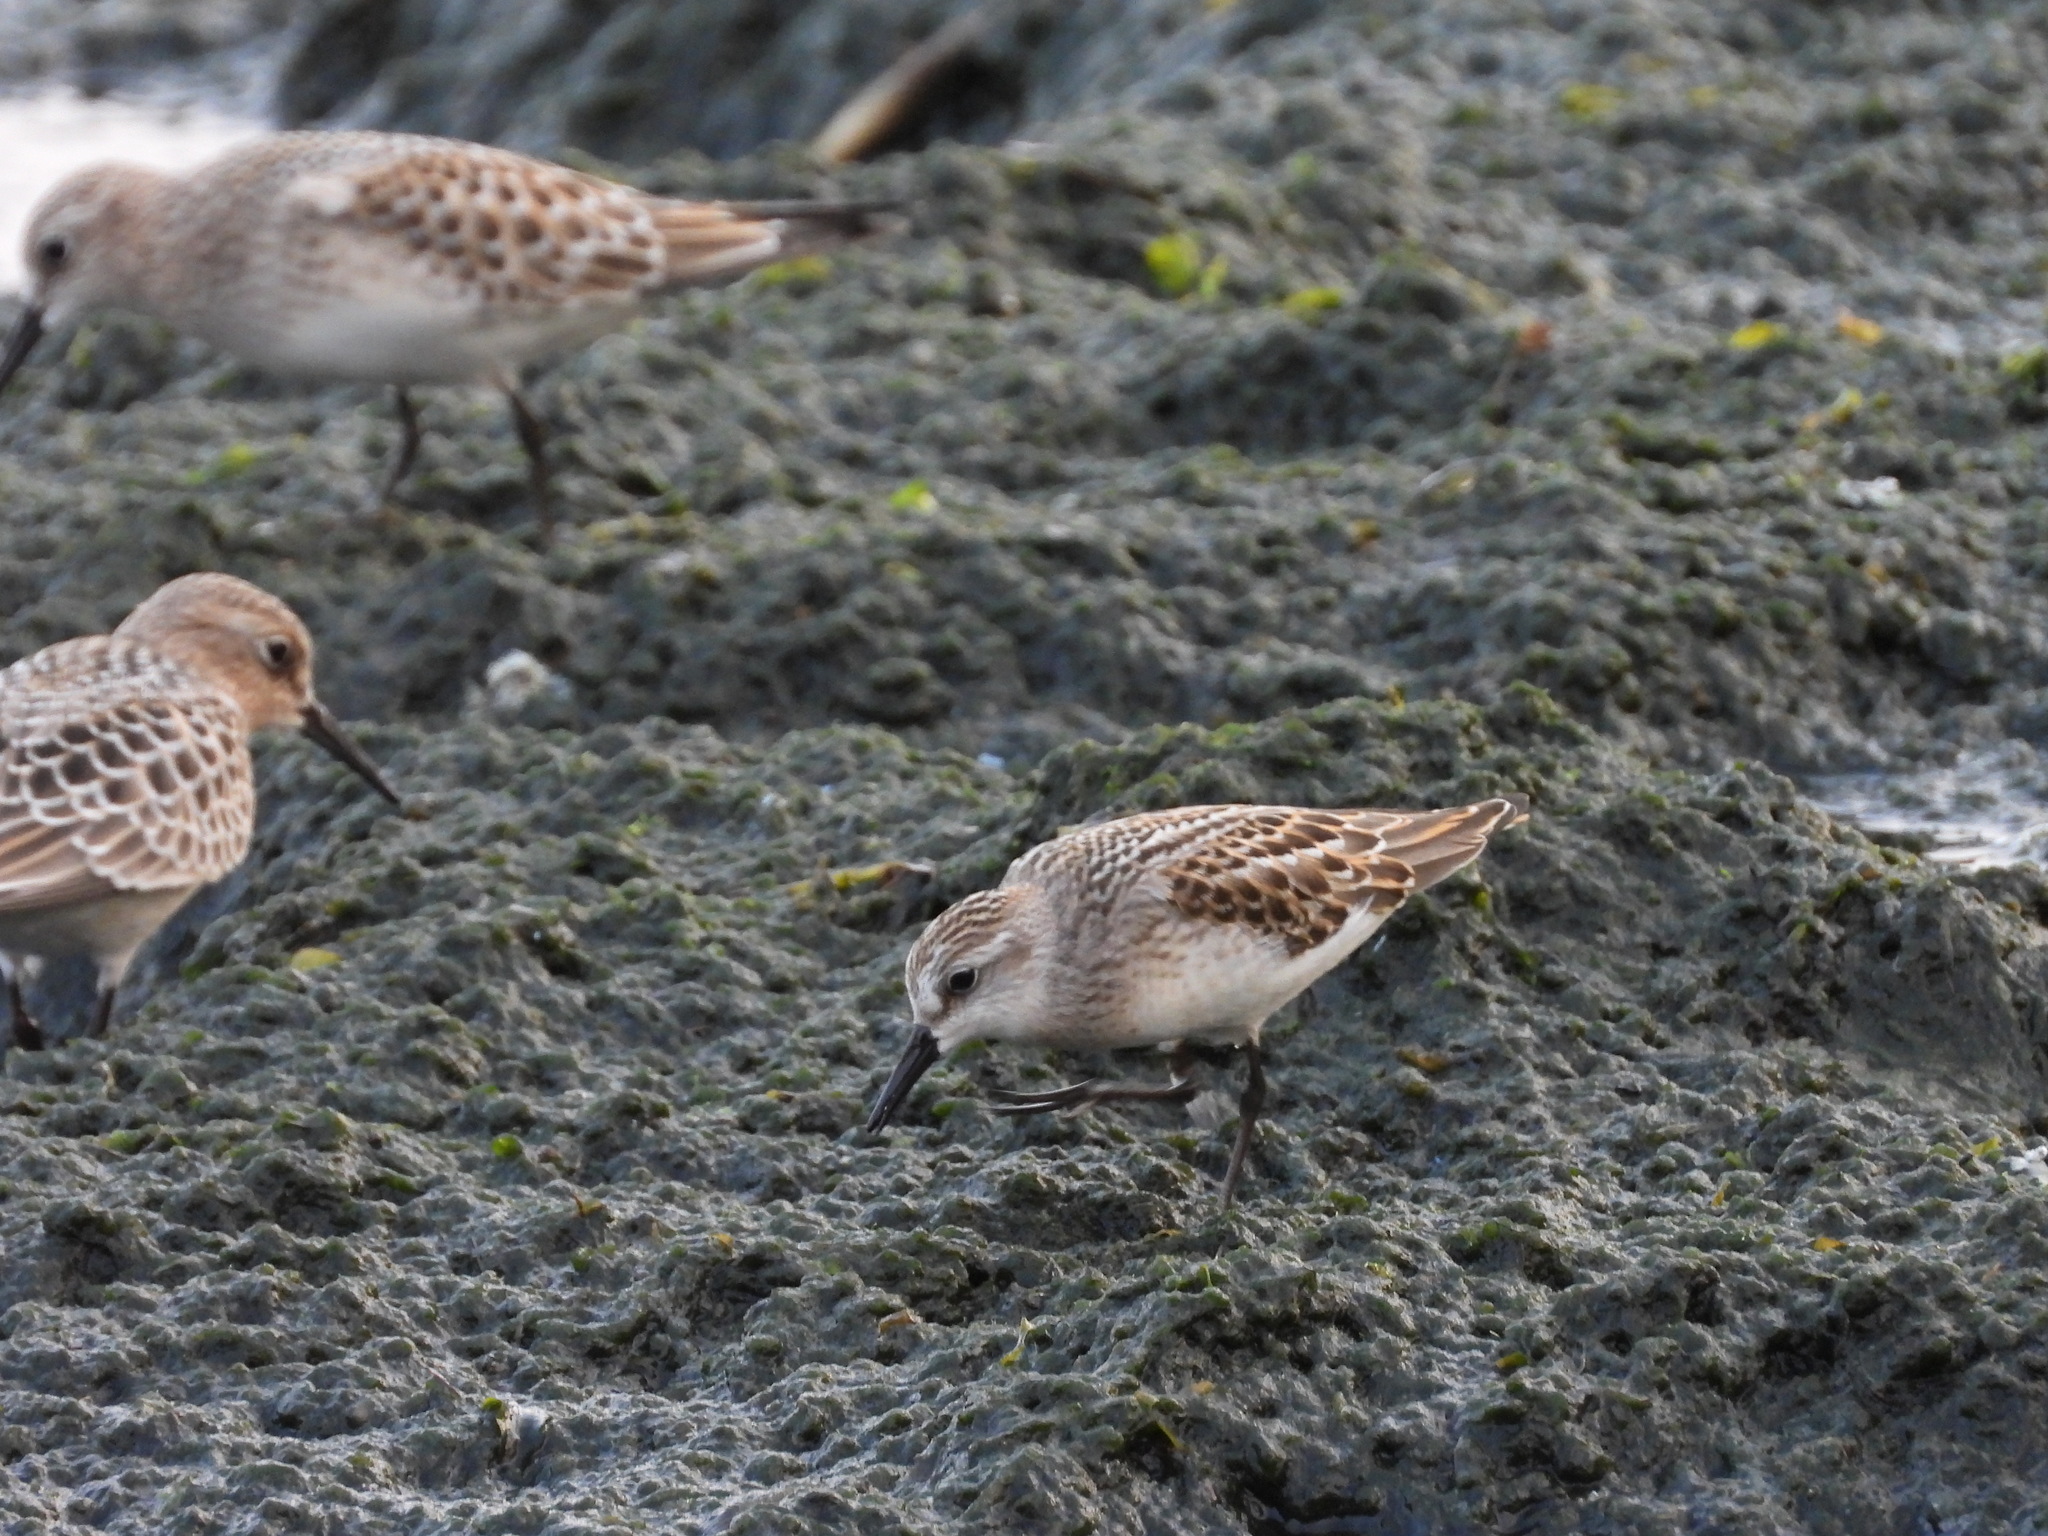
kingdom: Animalia
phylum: Chordata
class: Aves
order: Charadriiformes
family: Scolopacidae
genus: Calidris
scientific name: Calidris pusilla
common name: Semipalmated sandpiper
